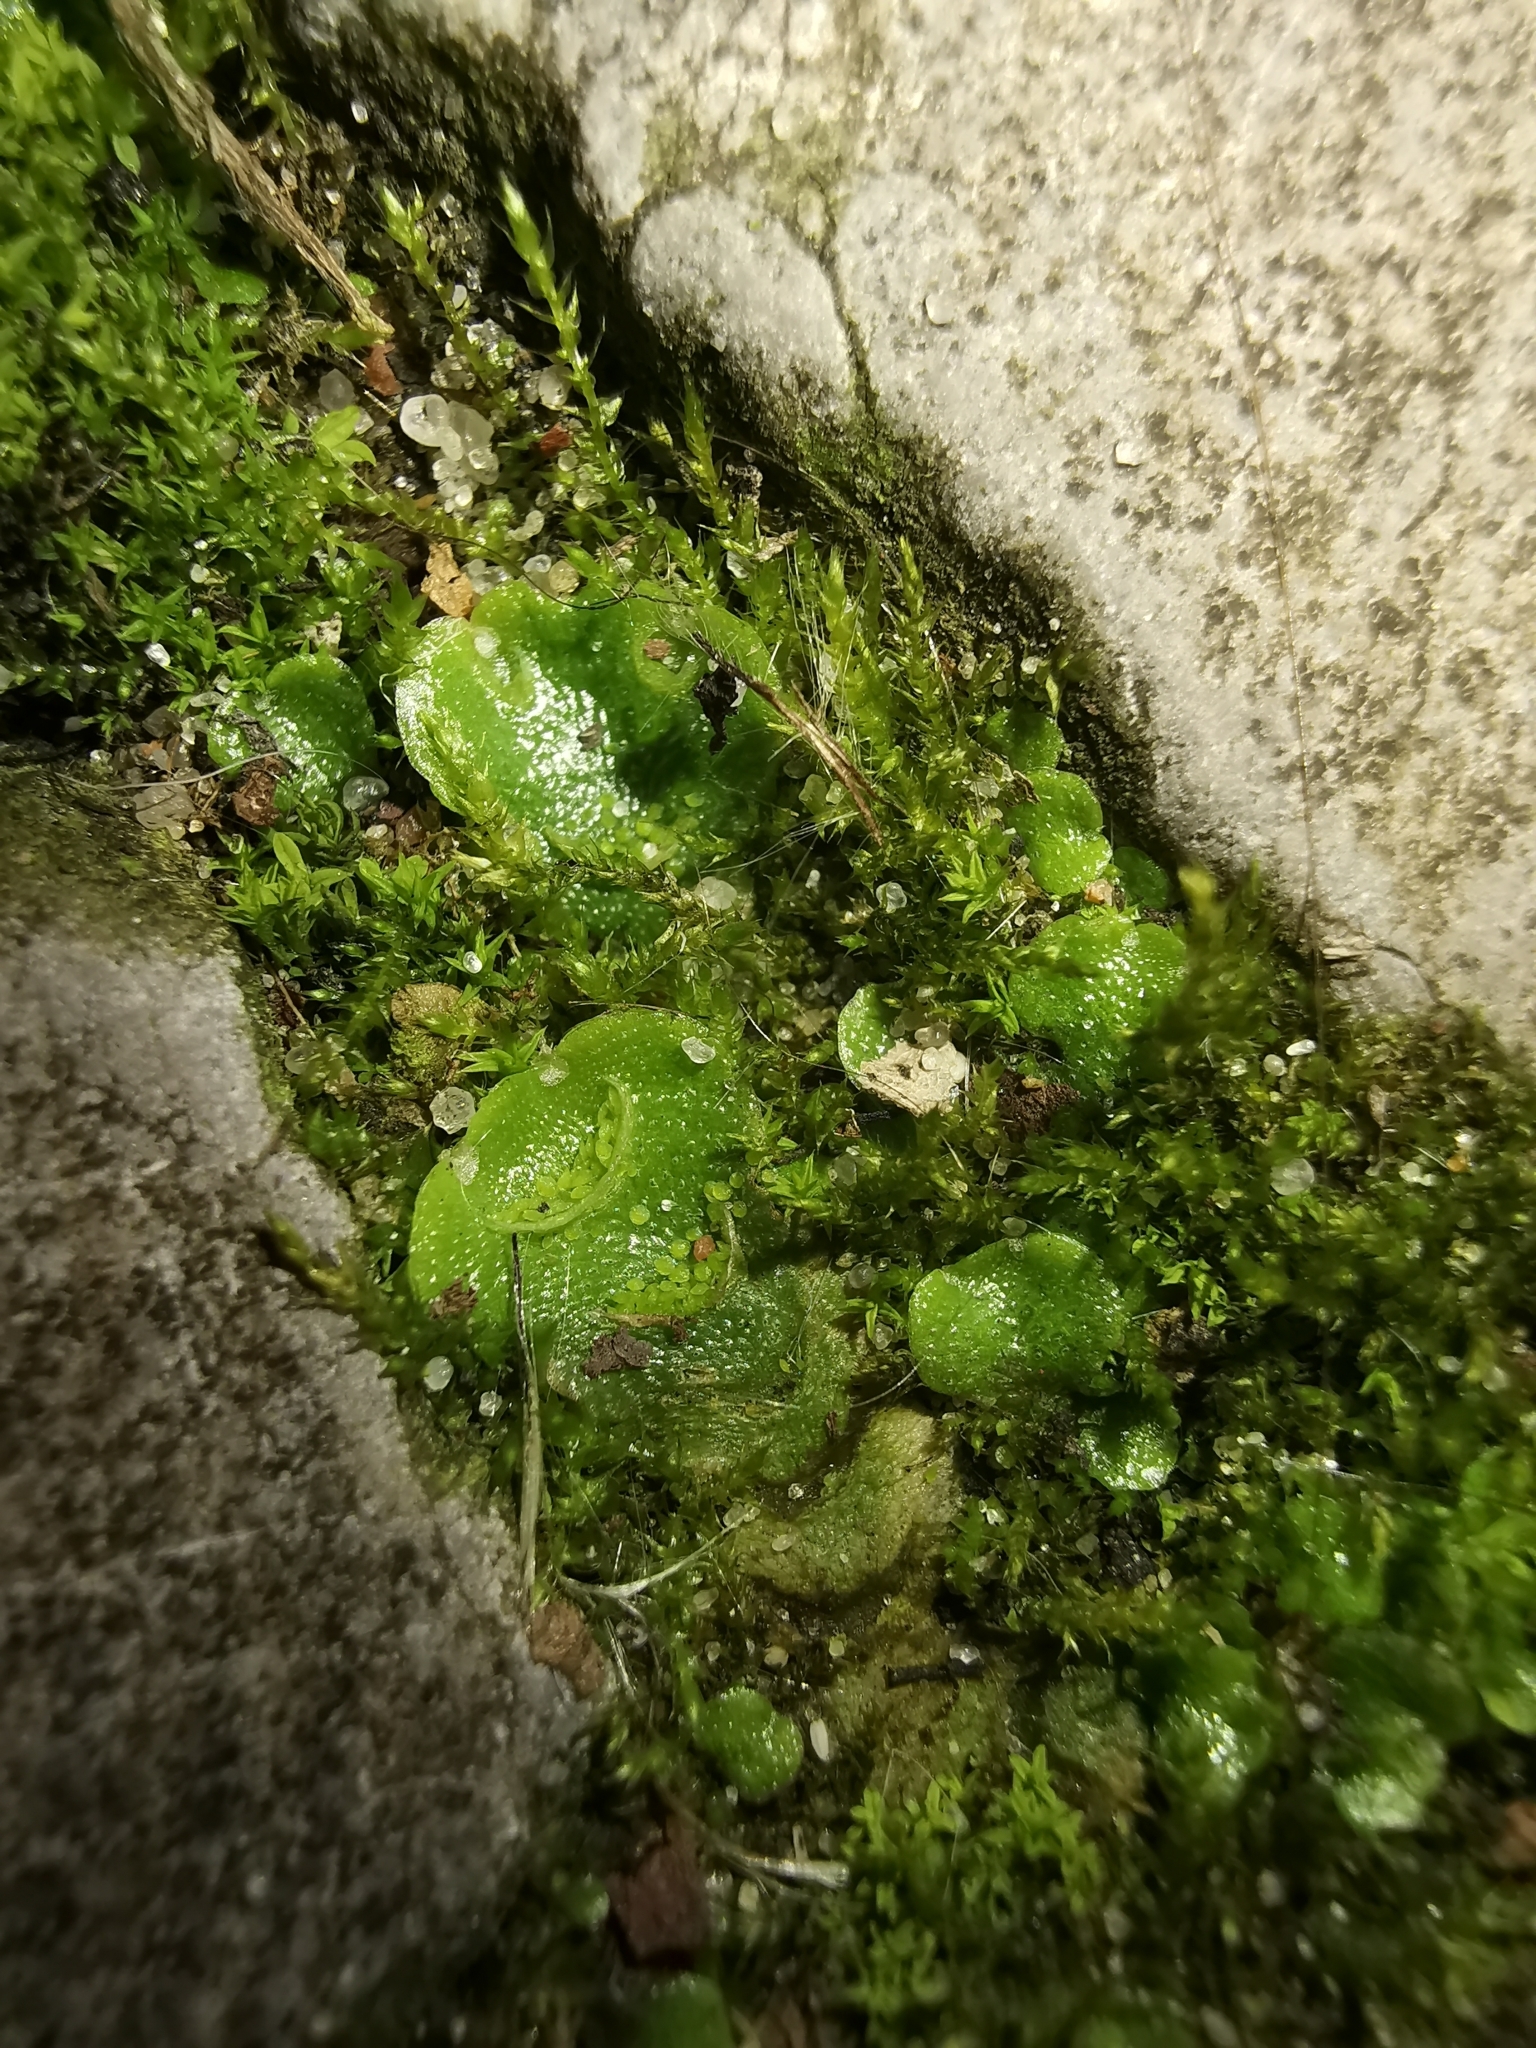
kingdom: Plantae
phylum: Marchantiophyta
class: Marchantiopsida
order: Lunulariales
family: Lunulariaceae
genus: Lunularia
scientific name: Lunularia cruciata
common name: Crescent-cup liverwort
